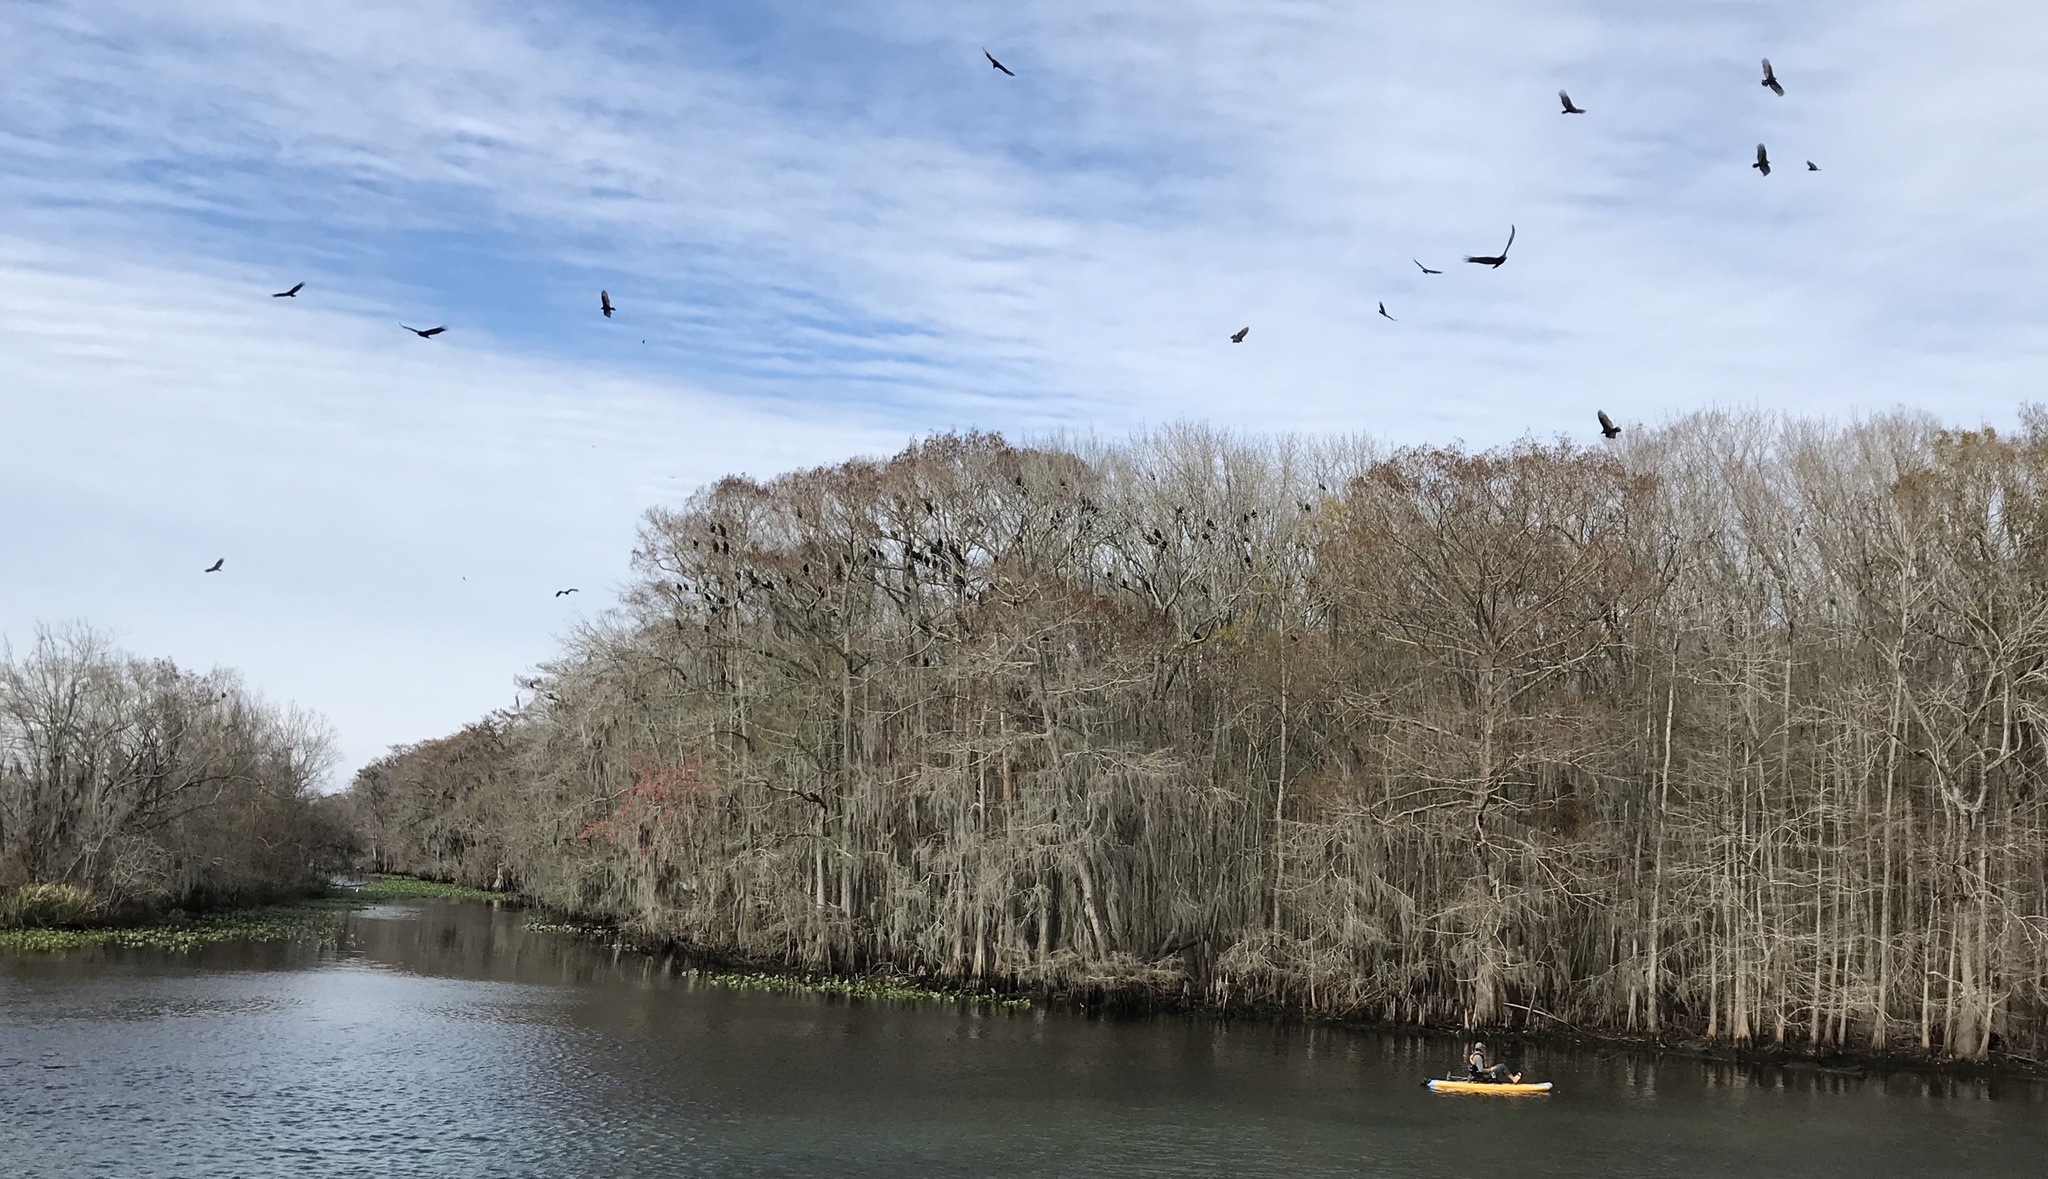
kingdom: Animalia
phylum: Chordata
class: Aves
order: Accipitriformes
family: Cathartidae
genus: Cathartes
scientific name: Cathartes aura
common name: Turkey vulture
